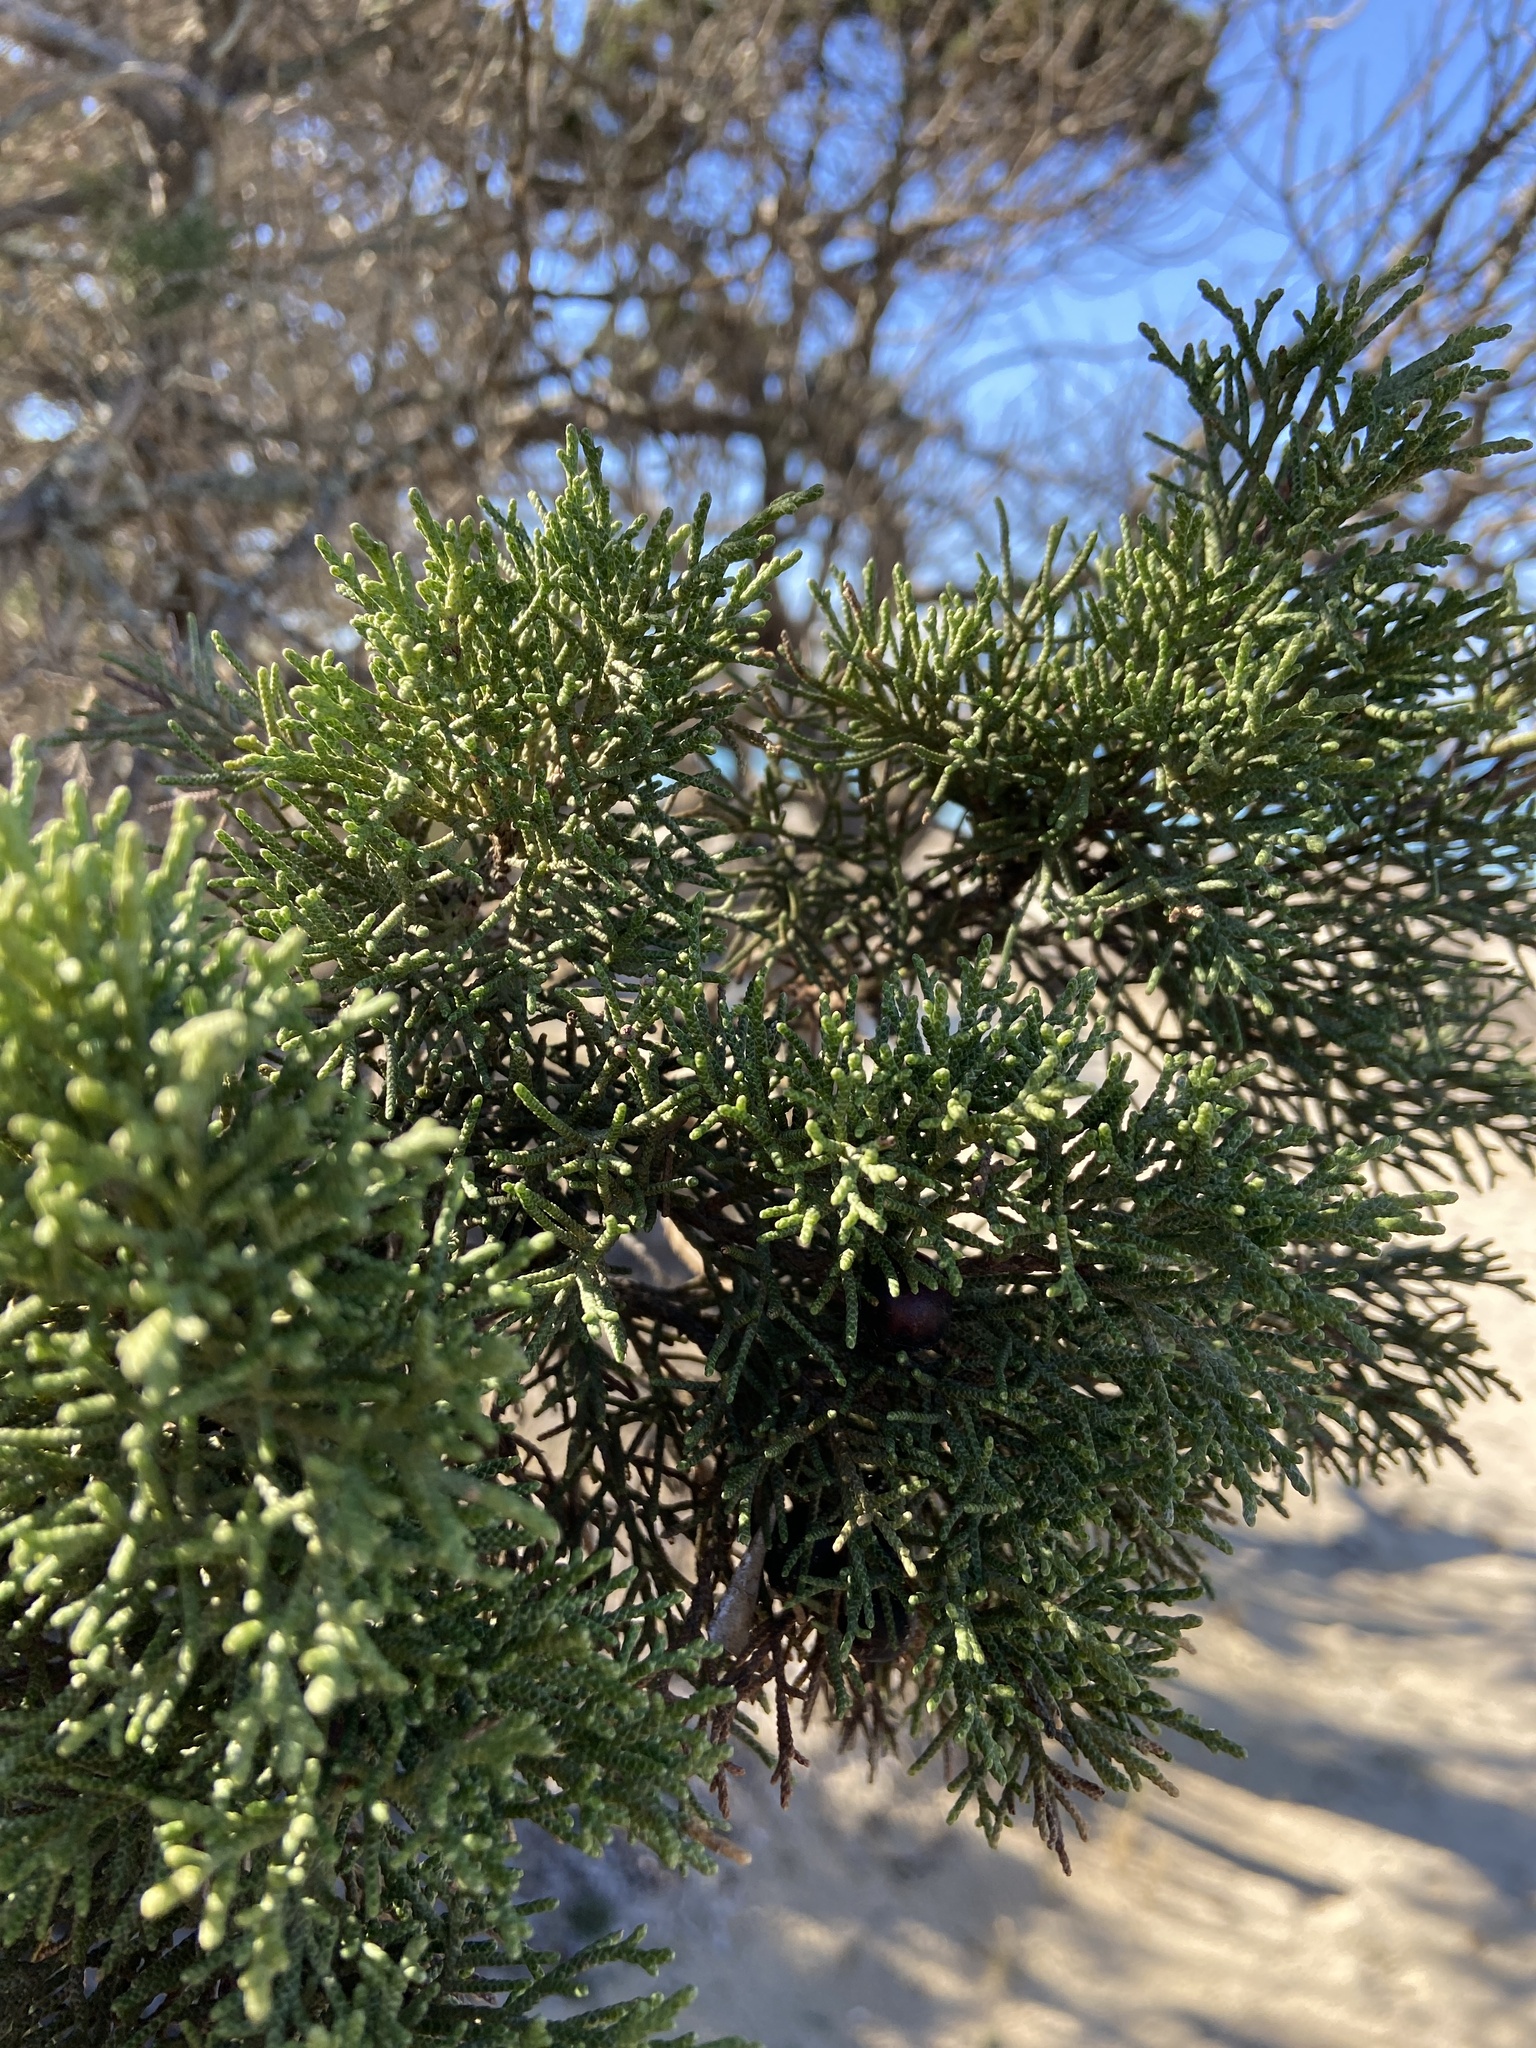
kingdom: Plantae
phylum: Tracheophyta
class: Pinopsida
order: Pinales
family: Cupressaceae
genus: Juniperus
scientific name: Juniperus phoenicea
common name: Phoenician juniper
